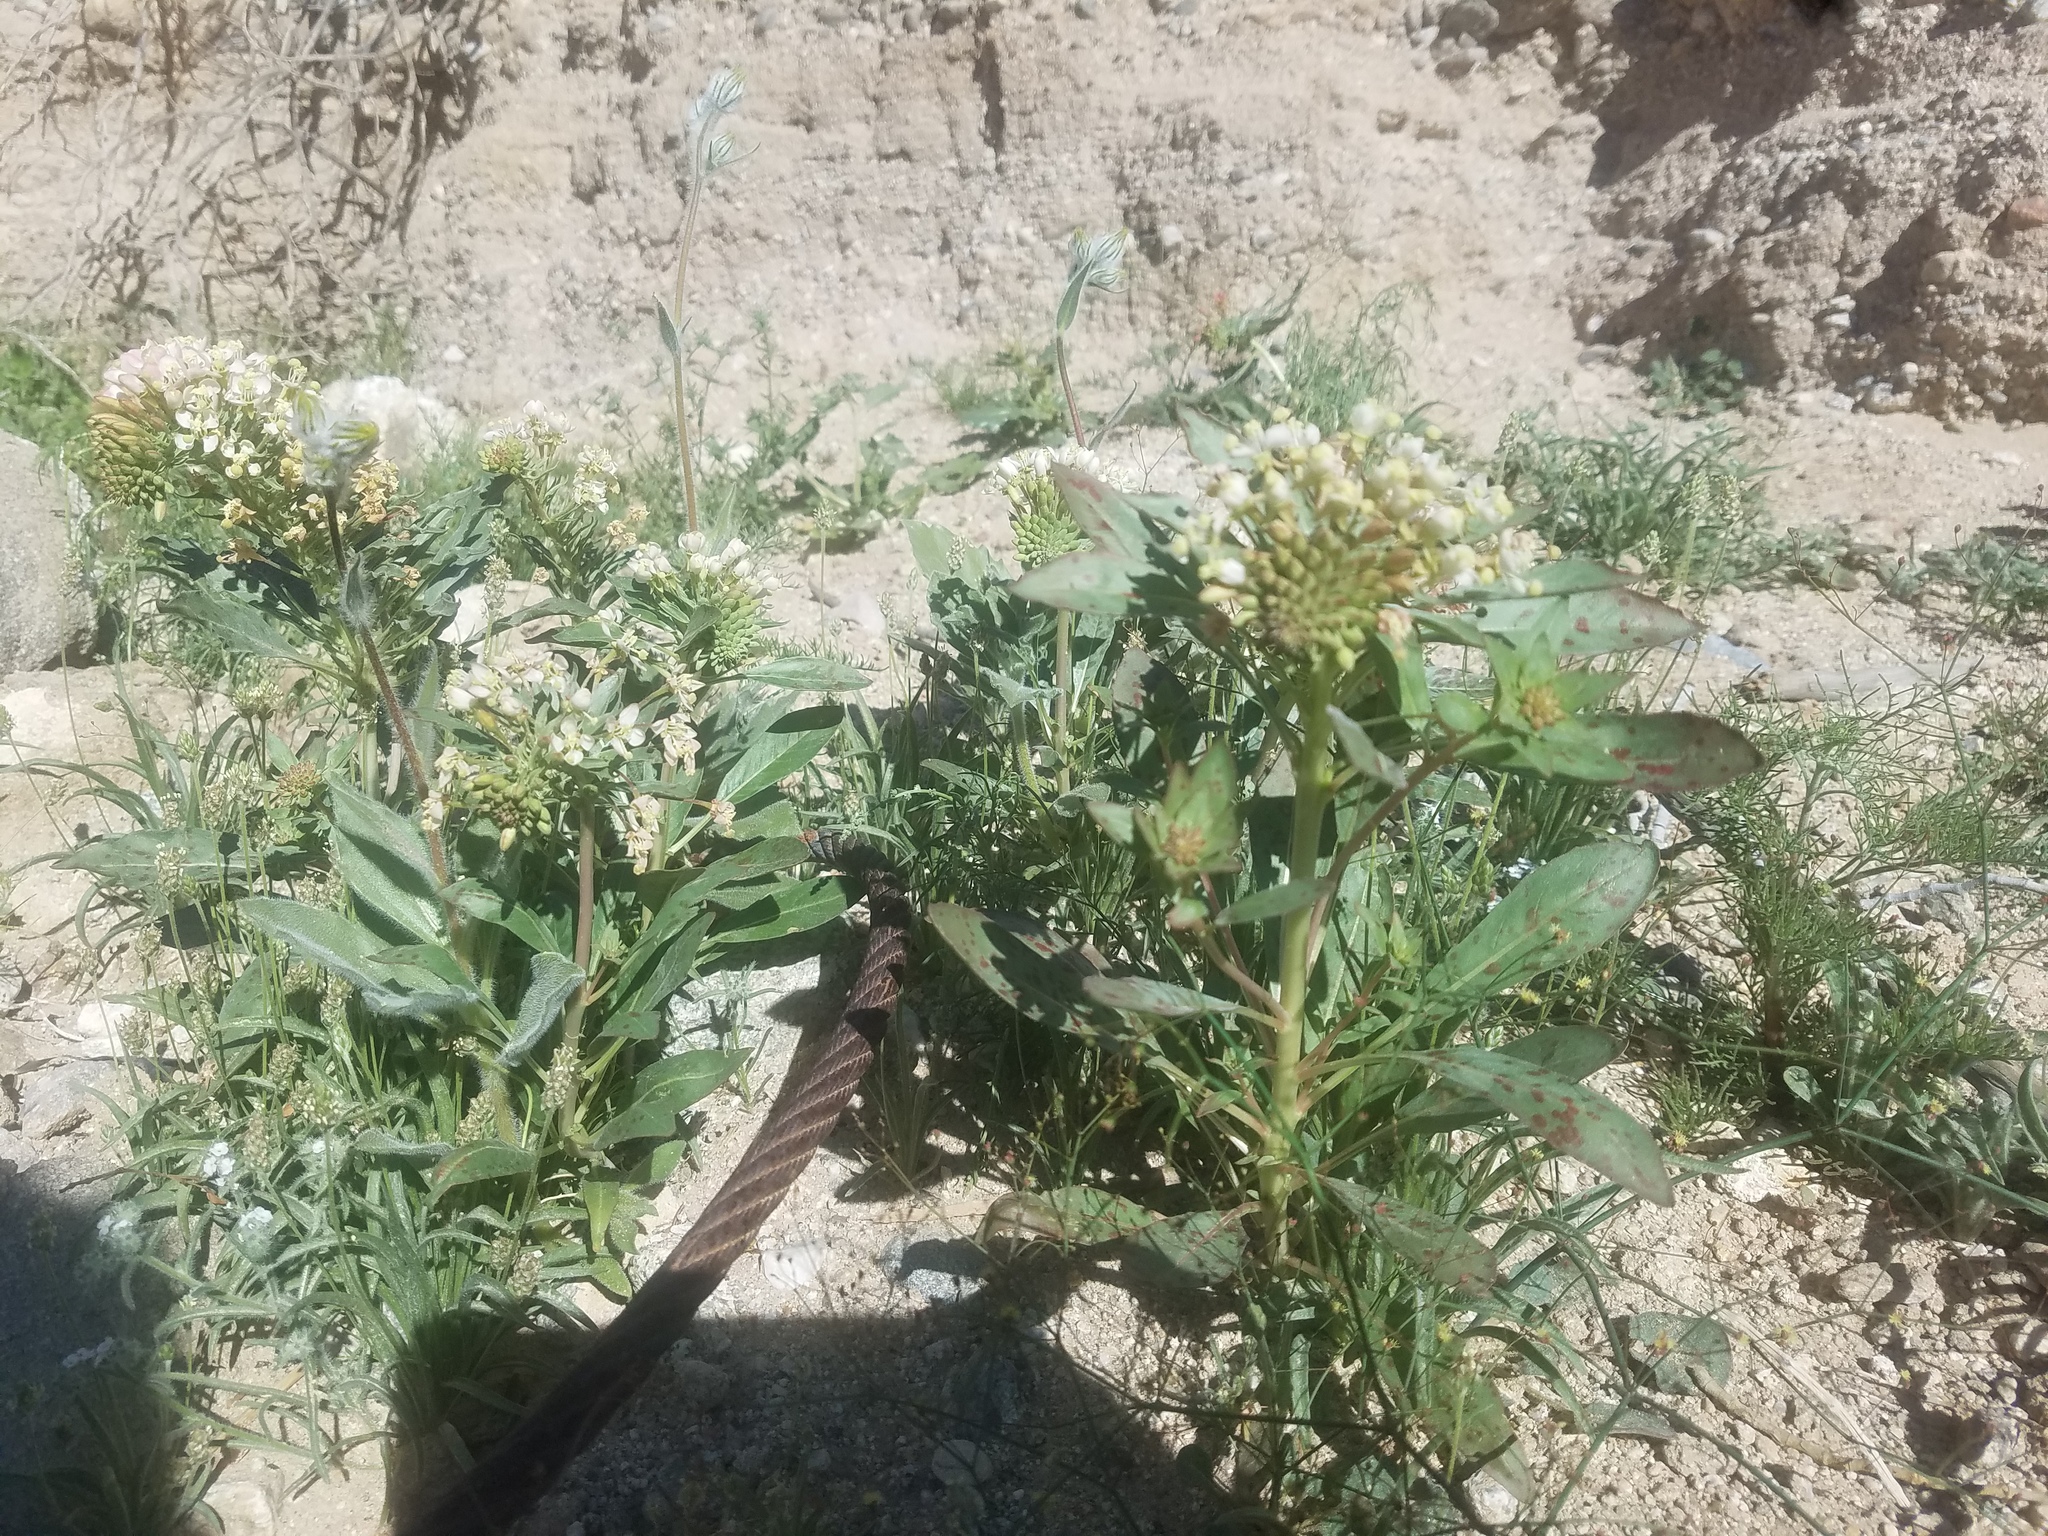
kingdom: Plantae
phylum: Tracheophyta
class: Magnoliopsida
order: Myrtales
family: Onagraceae
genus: Eremothera
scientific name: Eremothera boothii
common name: Booth's evening primrose
